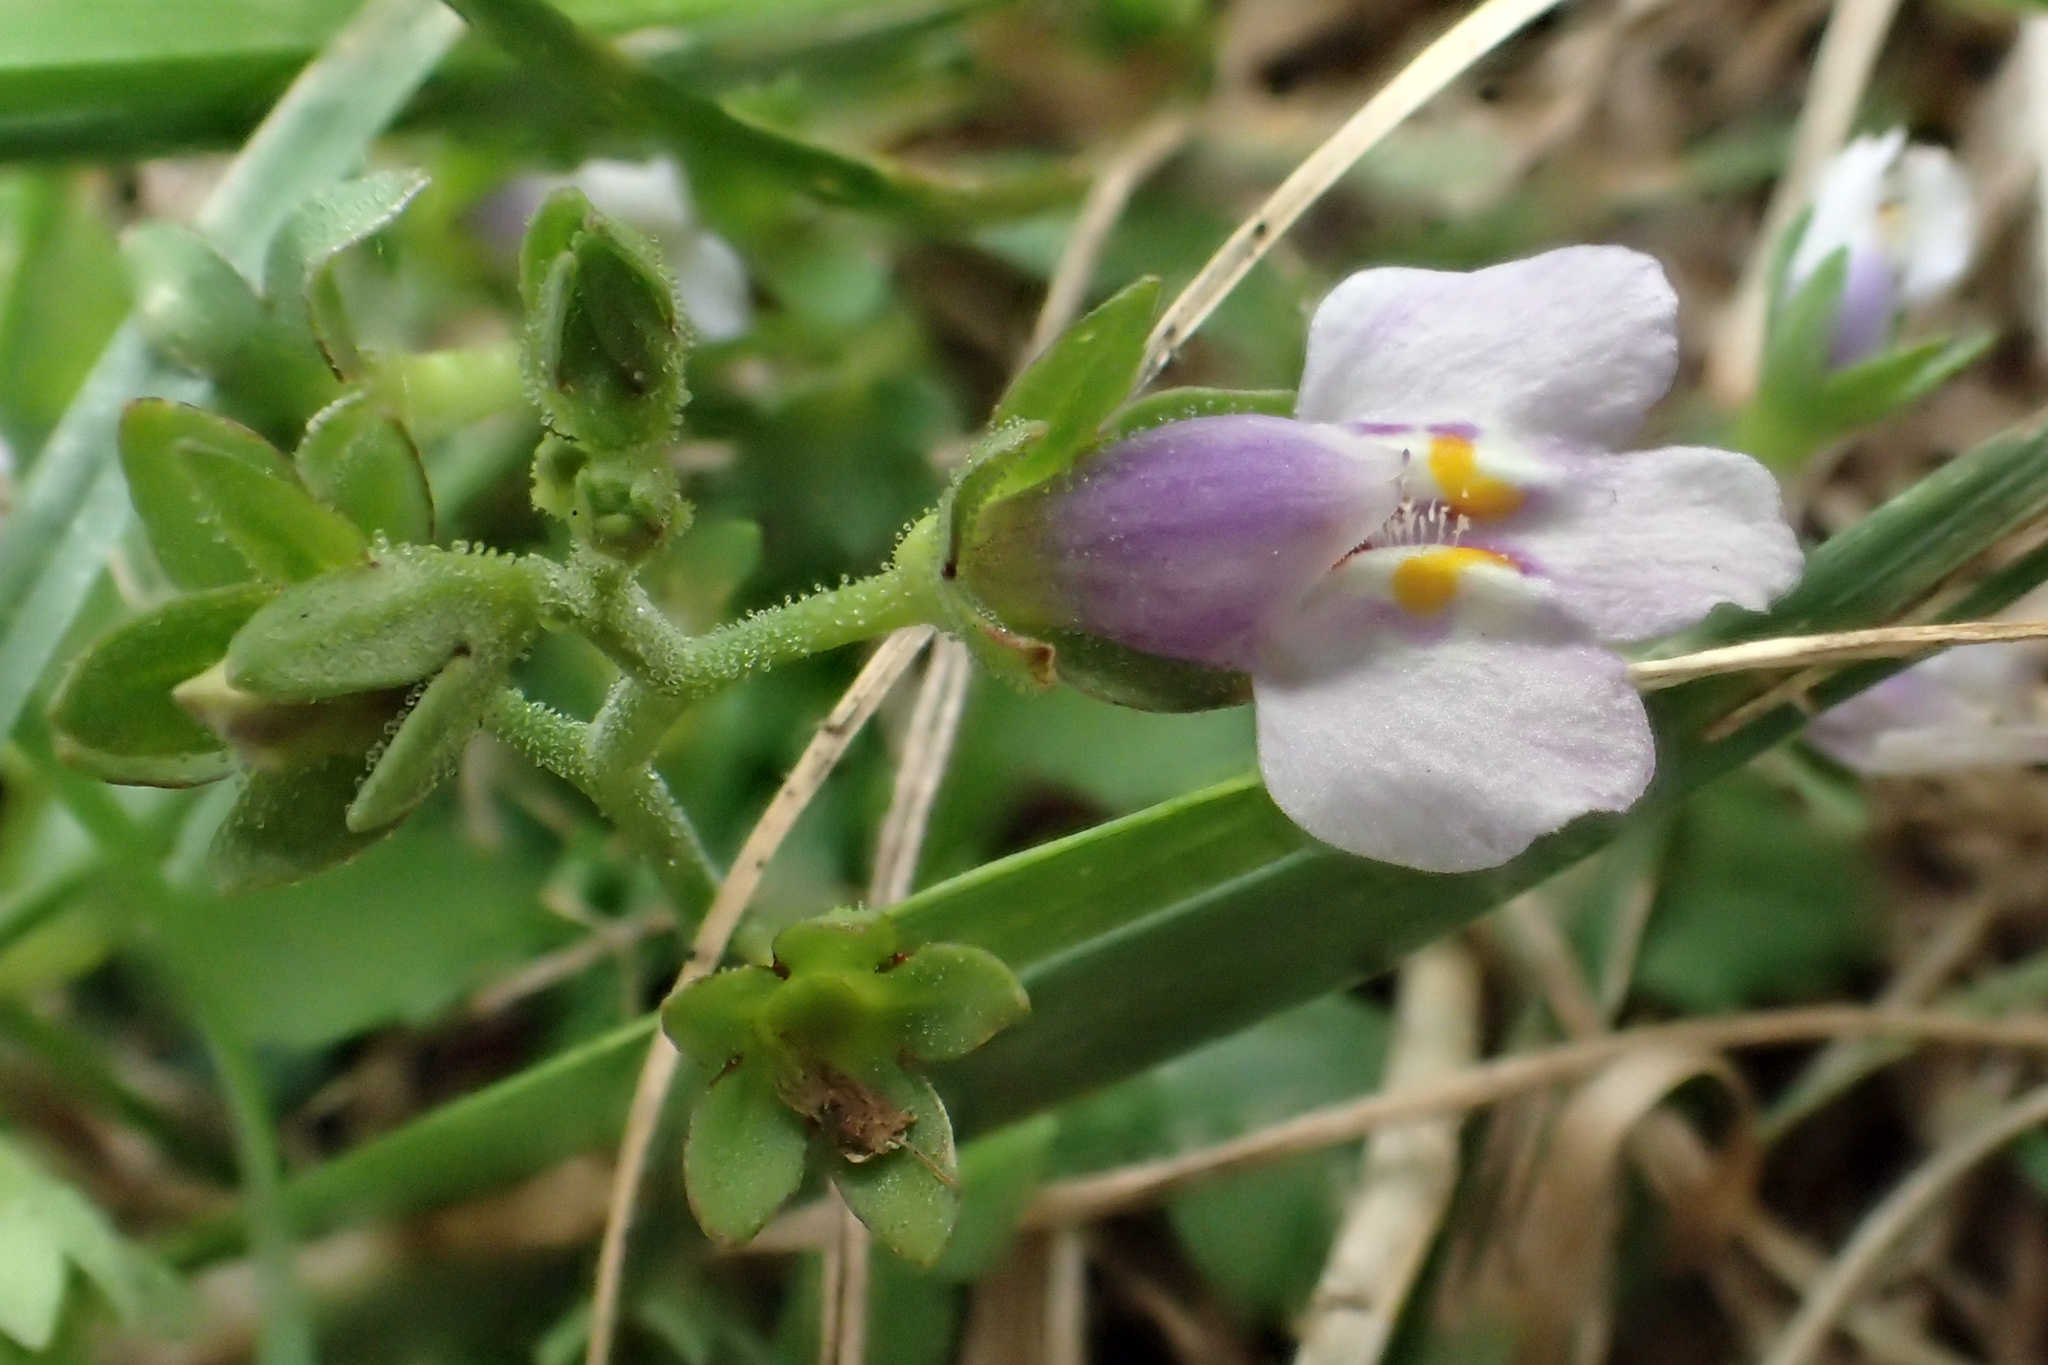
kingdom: Plantae
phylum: Tracheophyta
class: Magnoliopsida
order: Lamiales
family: Mazaceae
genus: Mazus
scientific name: Mazus pumilus
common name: Japanese mazus
